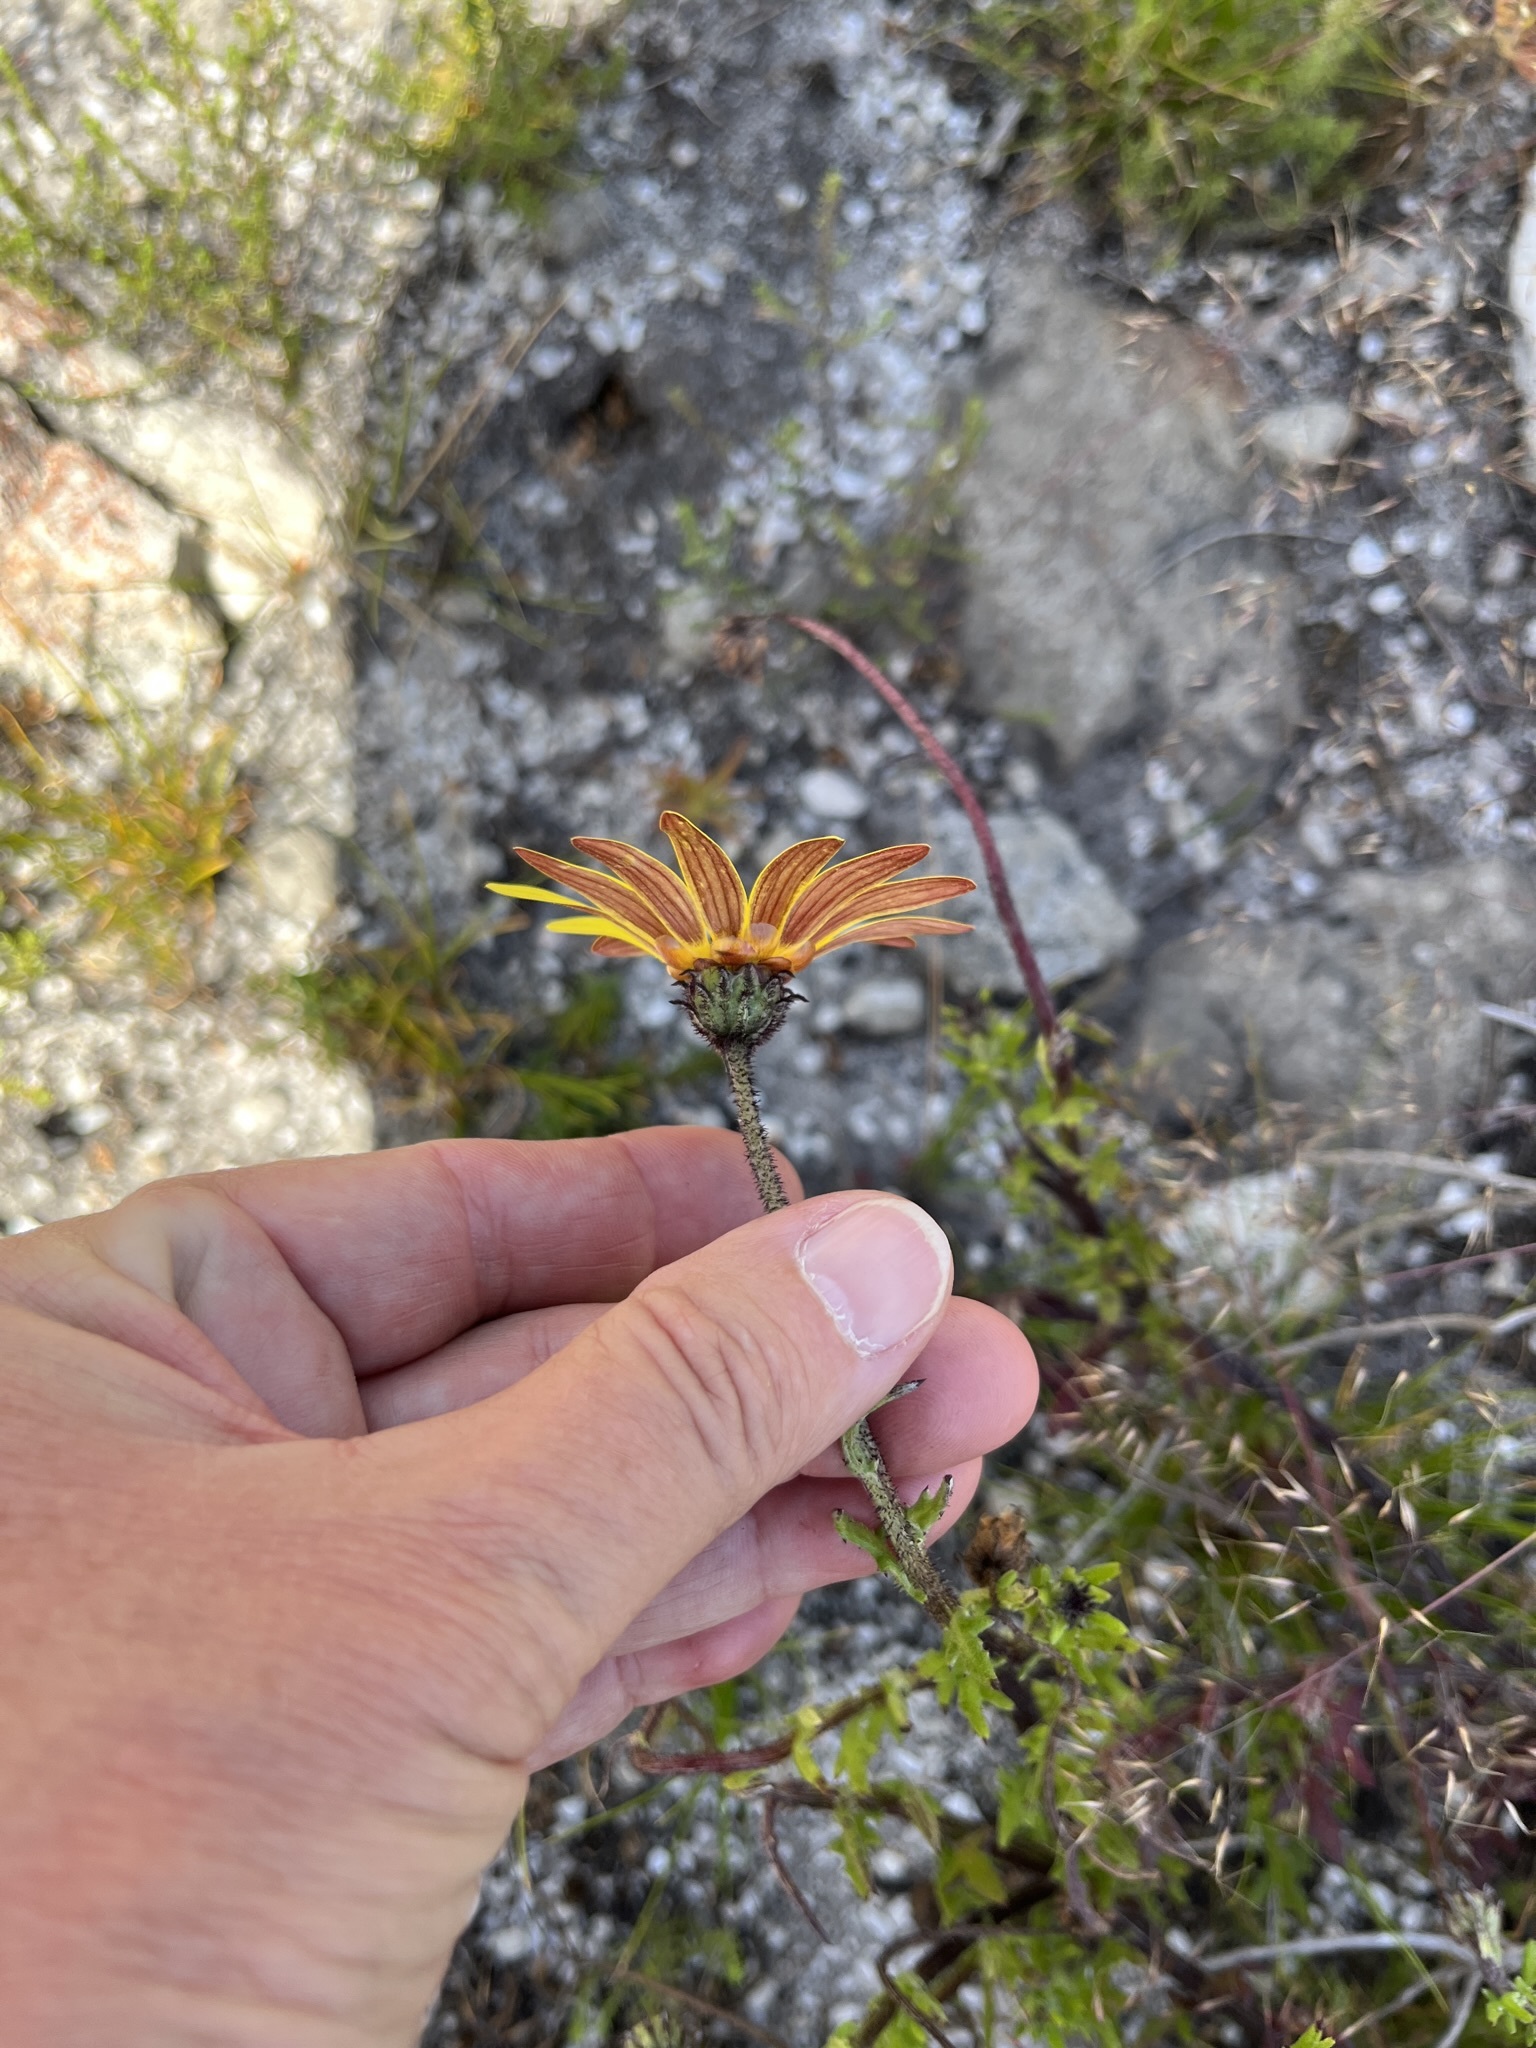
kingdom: Plantae
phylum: Tracheophyta
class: Magnoliopsida
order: Asterales
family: Asteraceae
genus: Arctotis
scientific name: Arctotis scabra
